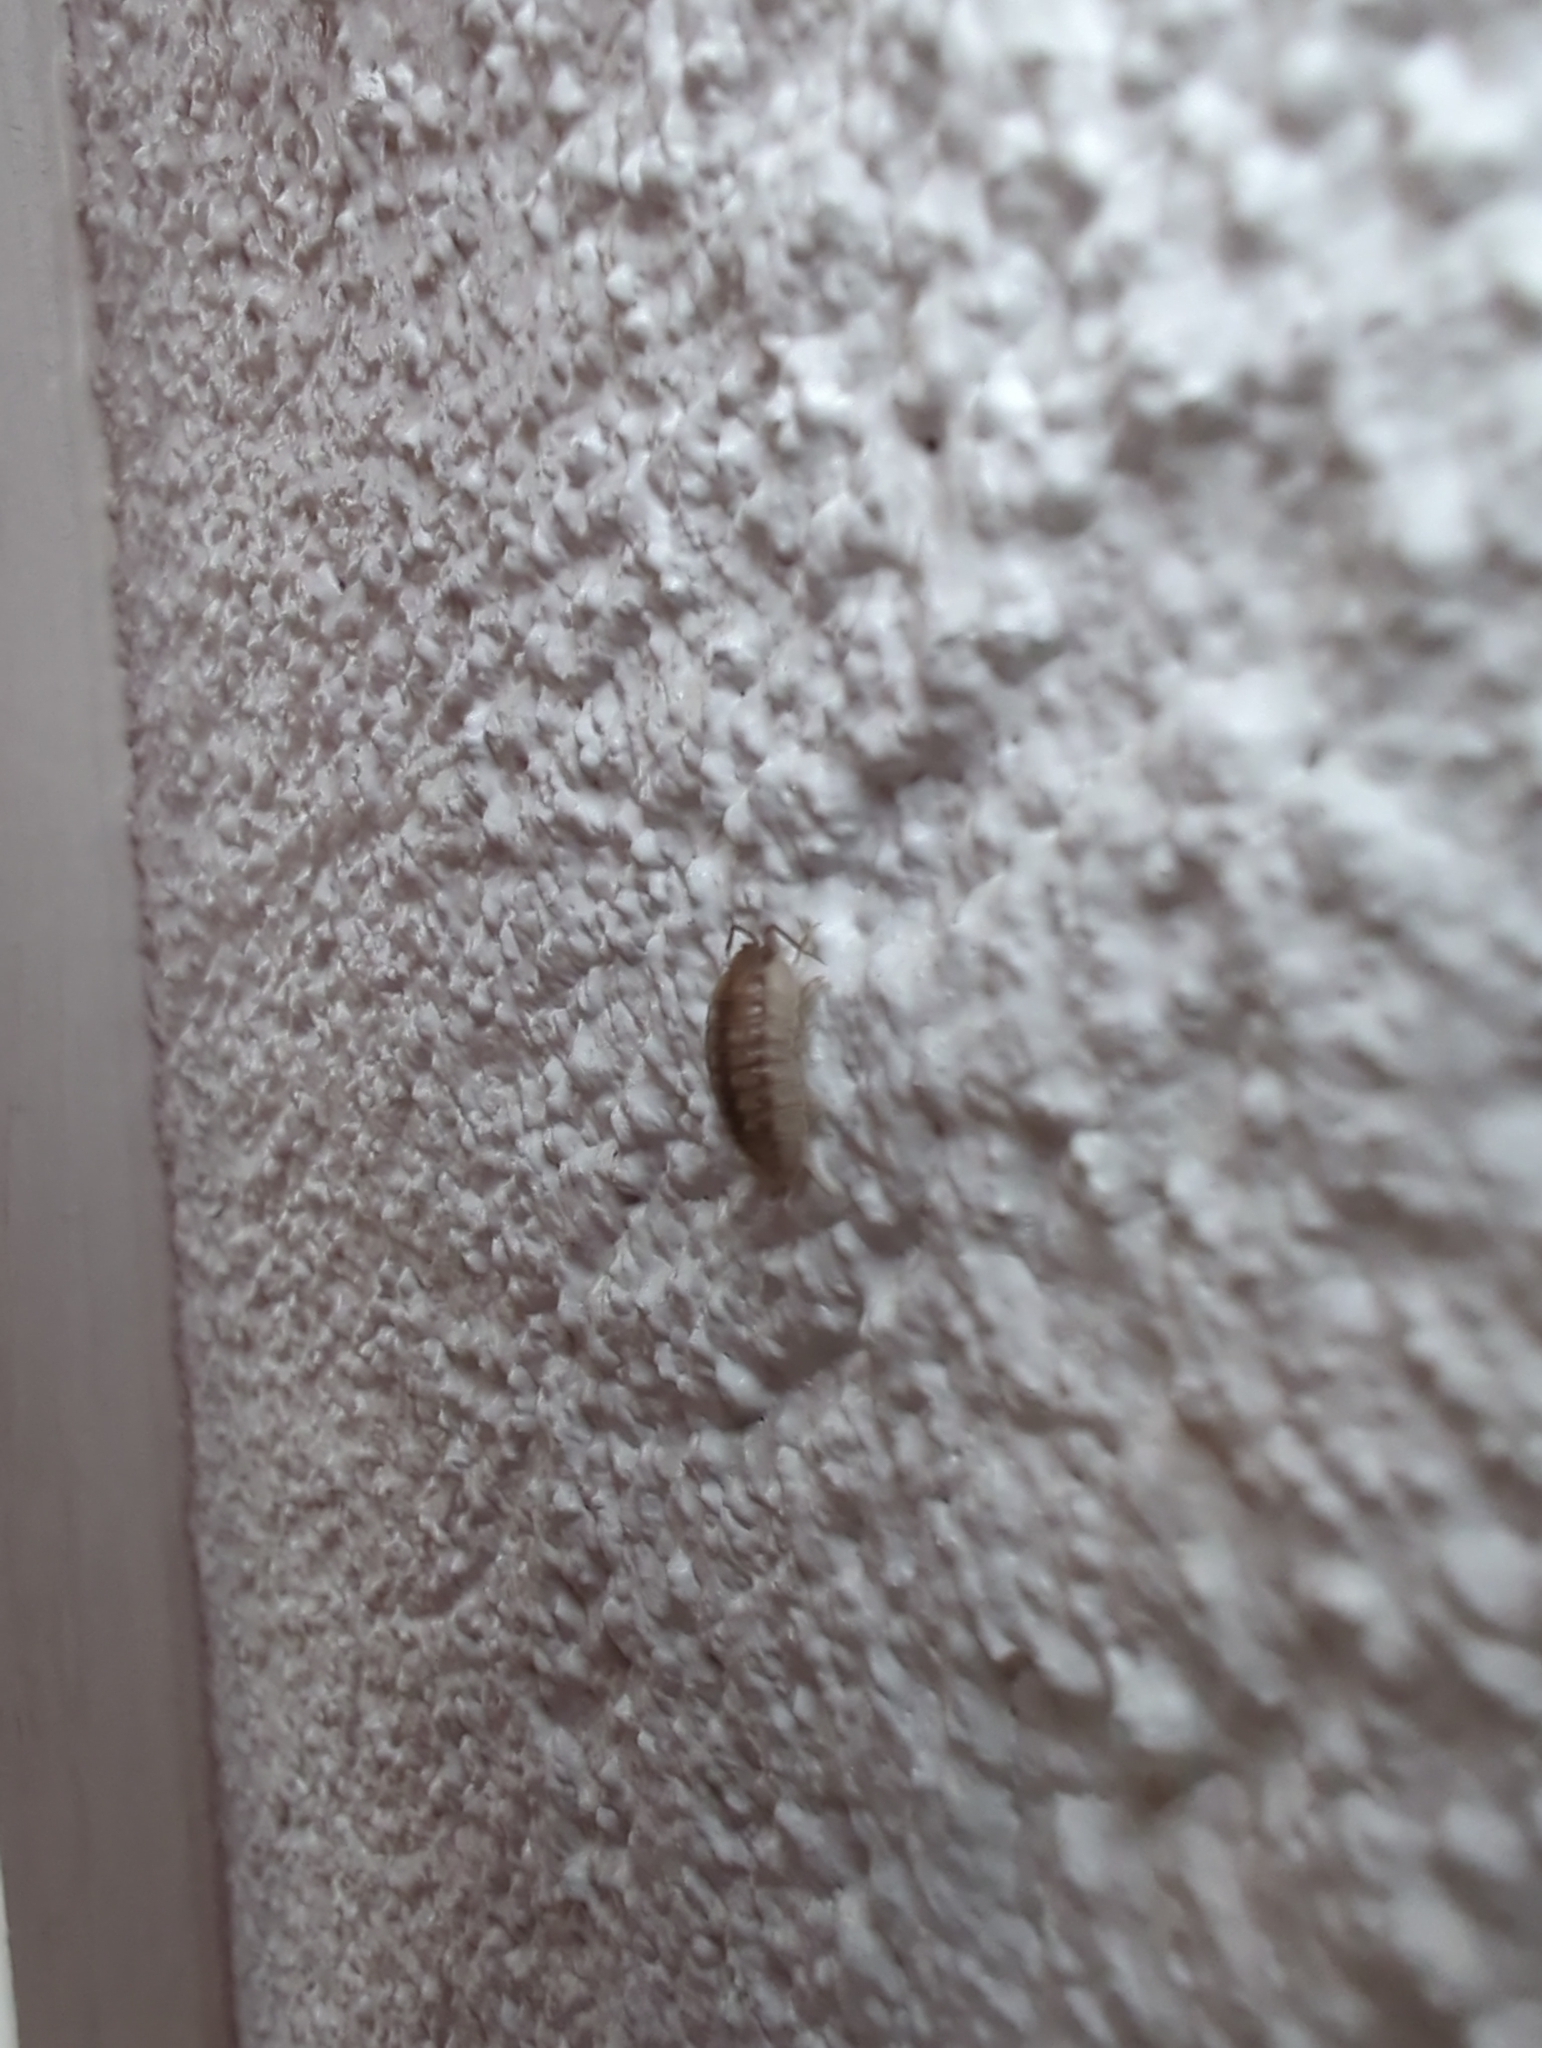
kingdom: Animalia
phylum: Arthropoda
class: Malacostraca
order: Isopoda
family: Armadillidiidae
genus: Armadillidium
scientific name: Armadillidium nasatum
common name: Isopod
